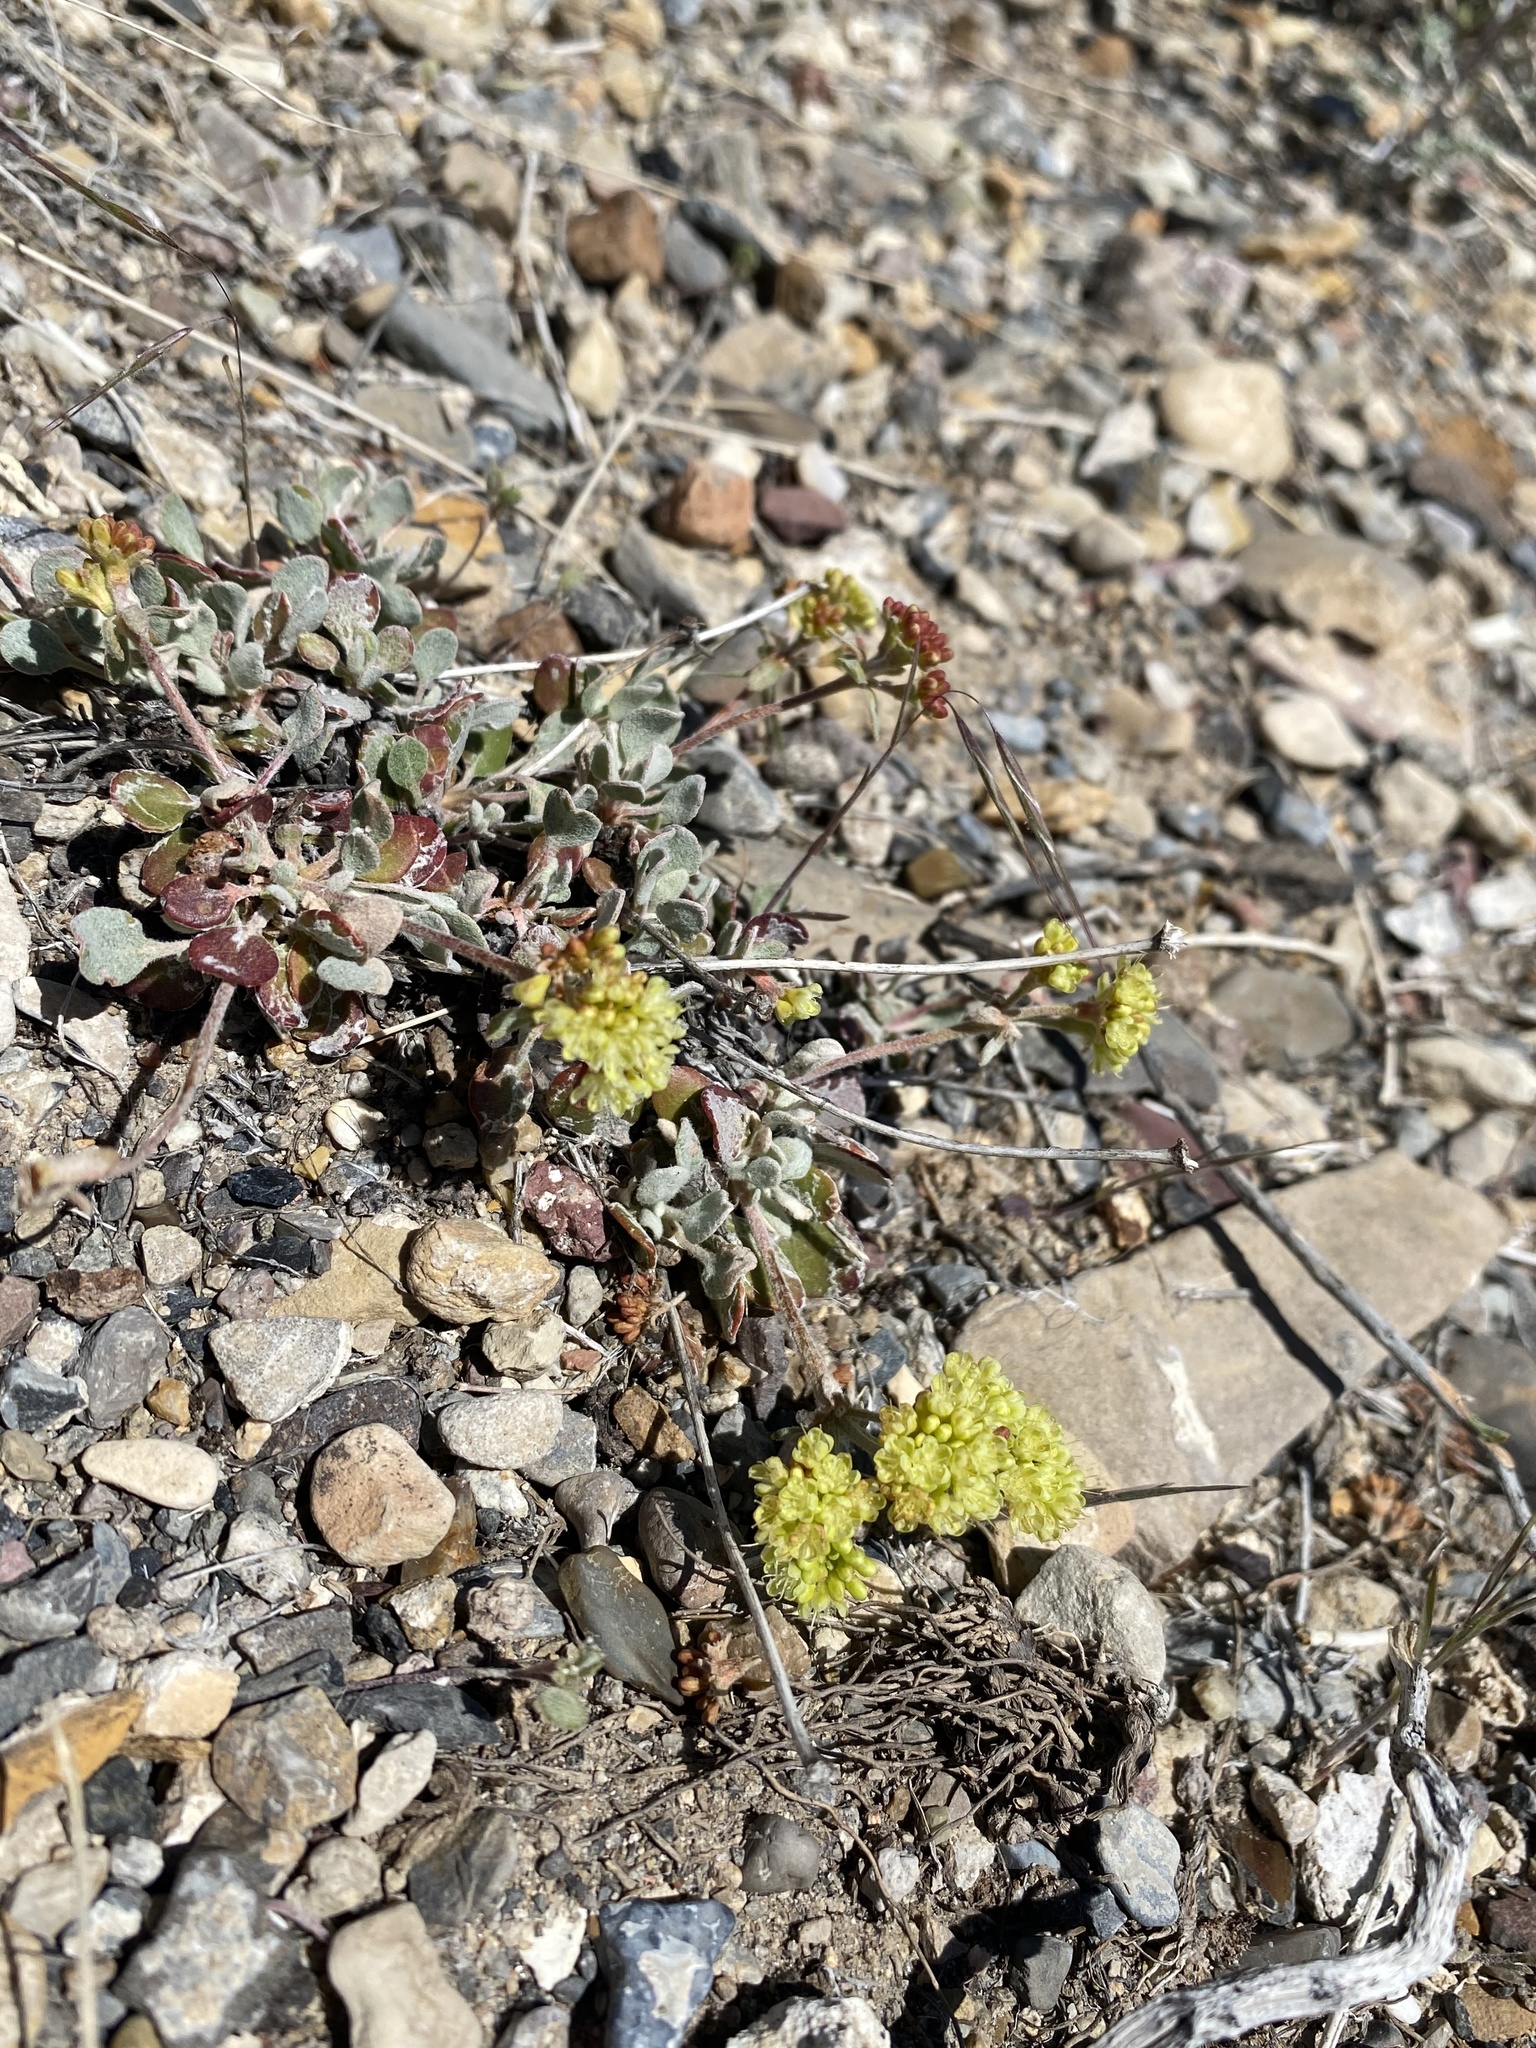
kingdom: Plantae
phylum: Tracheophyta
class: Magnoliopsida
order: Caryophyllales
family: Polygonaceae
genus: Eriogonum
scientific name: Eriogonum umbellatum
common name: Sulfur-buckwheat
